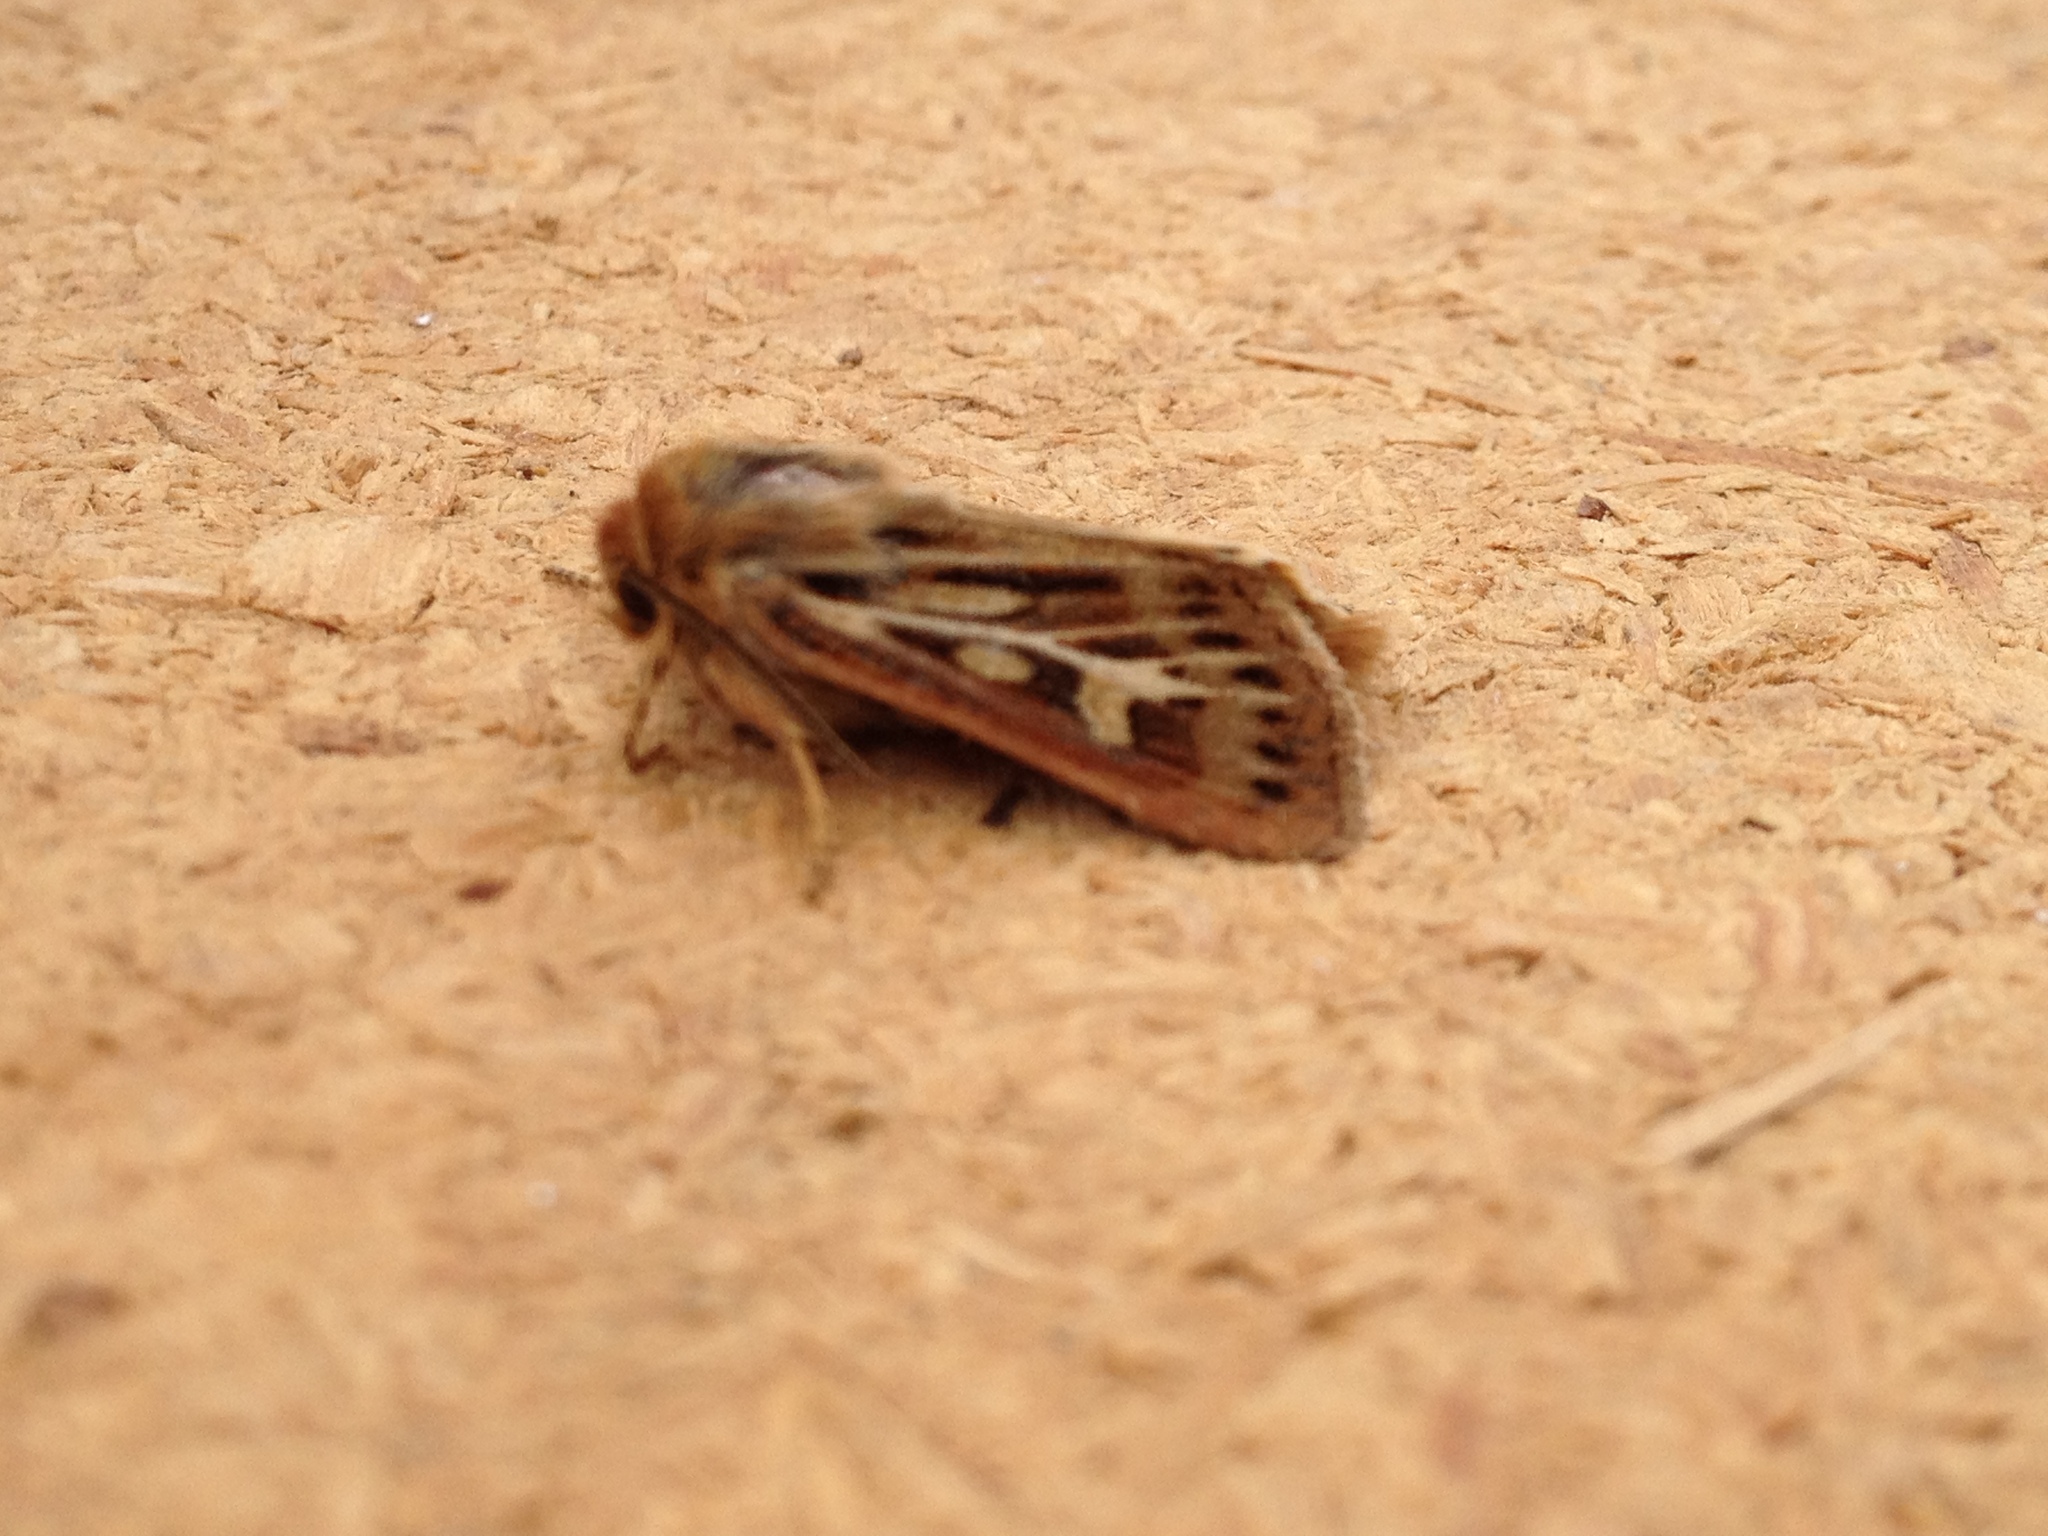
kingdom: Animalia
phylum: Arthropoda
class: Insecta
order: Lepidoptera
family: Noctuidae
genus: Cerapteryx
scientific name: Cerapteryx graminis
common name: Antler moth
